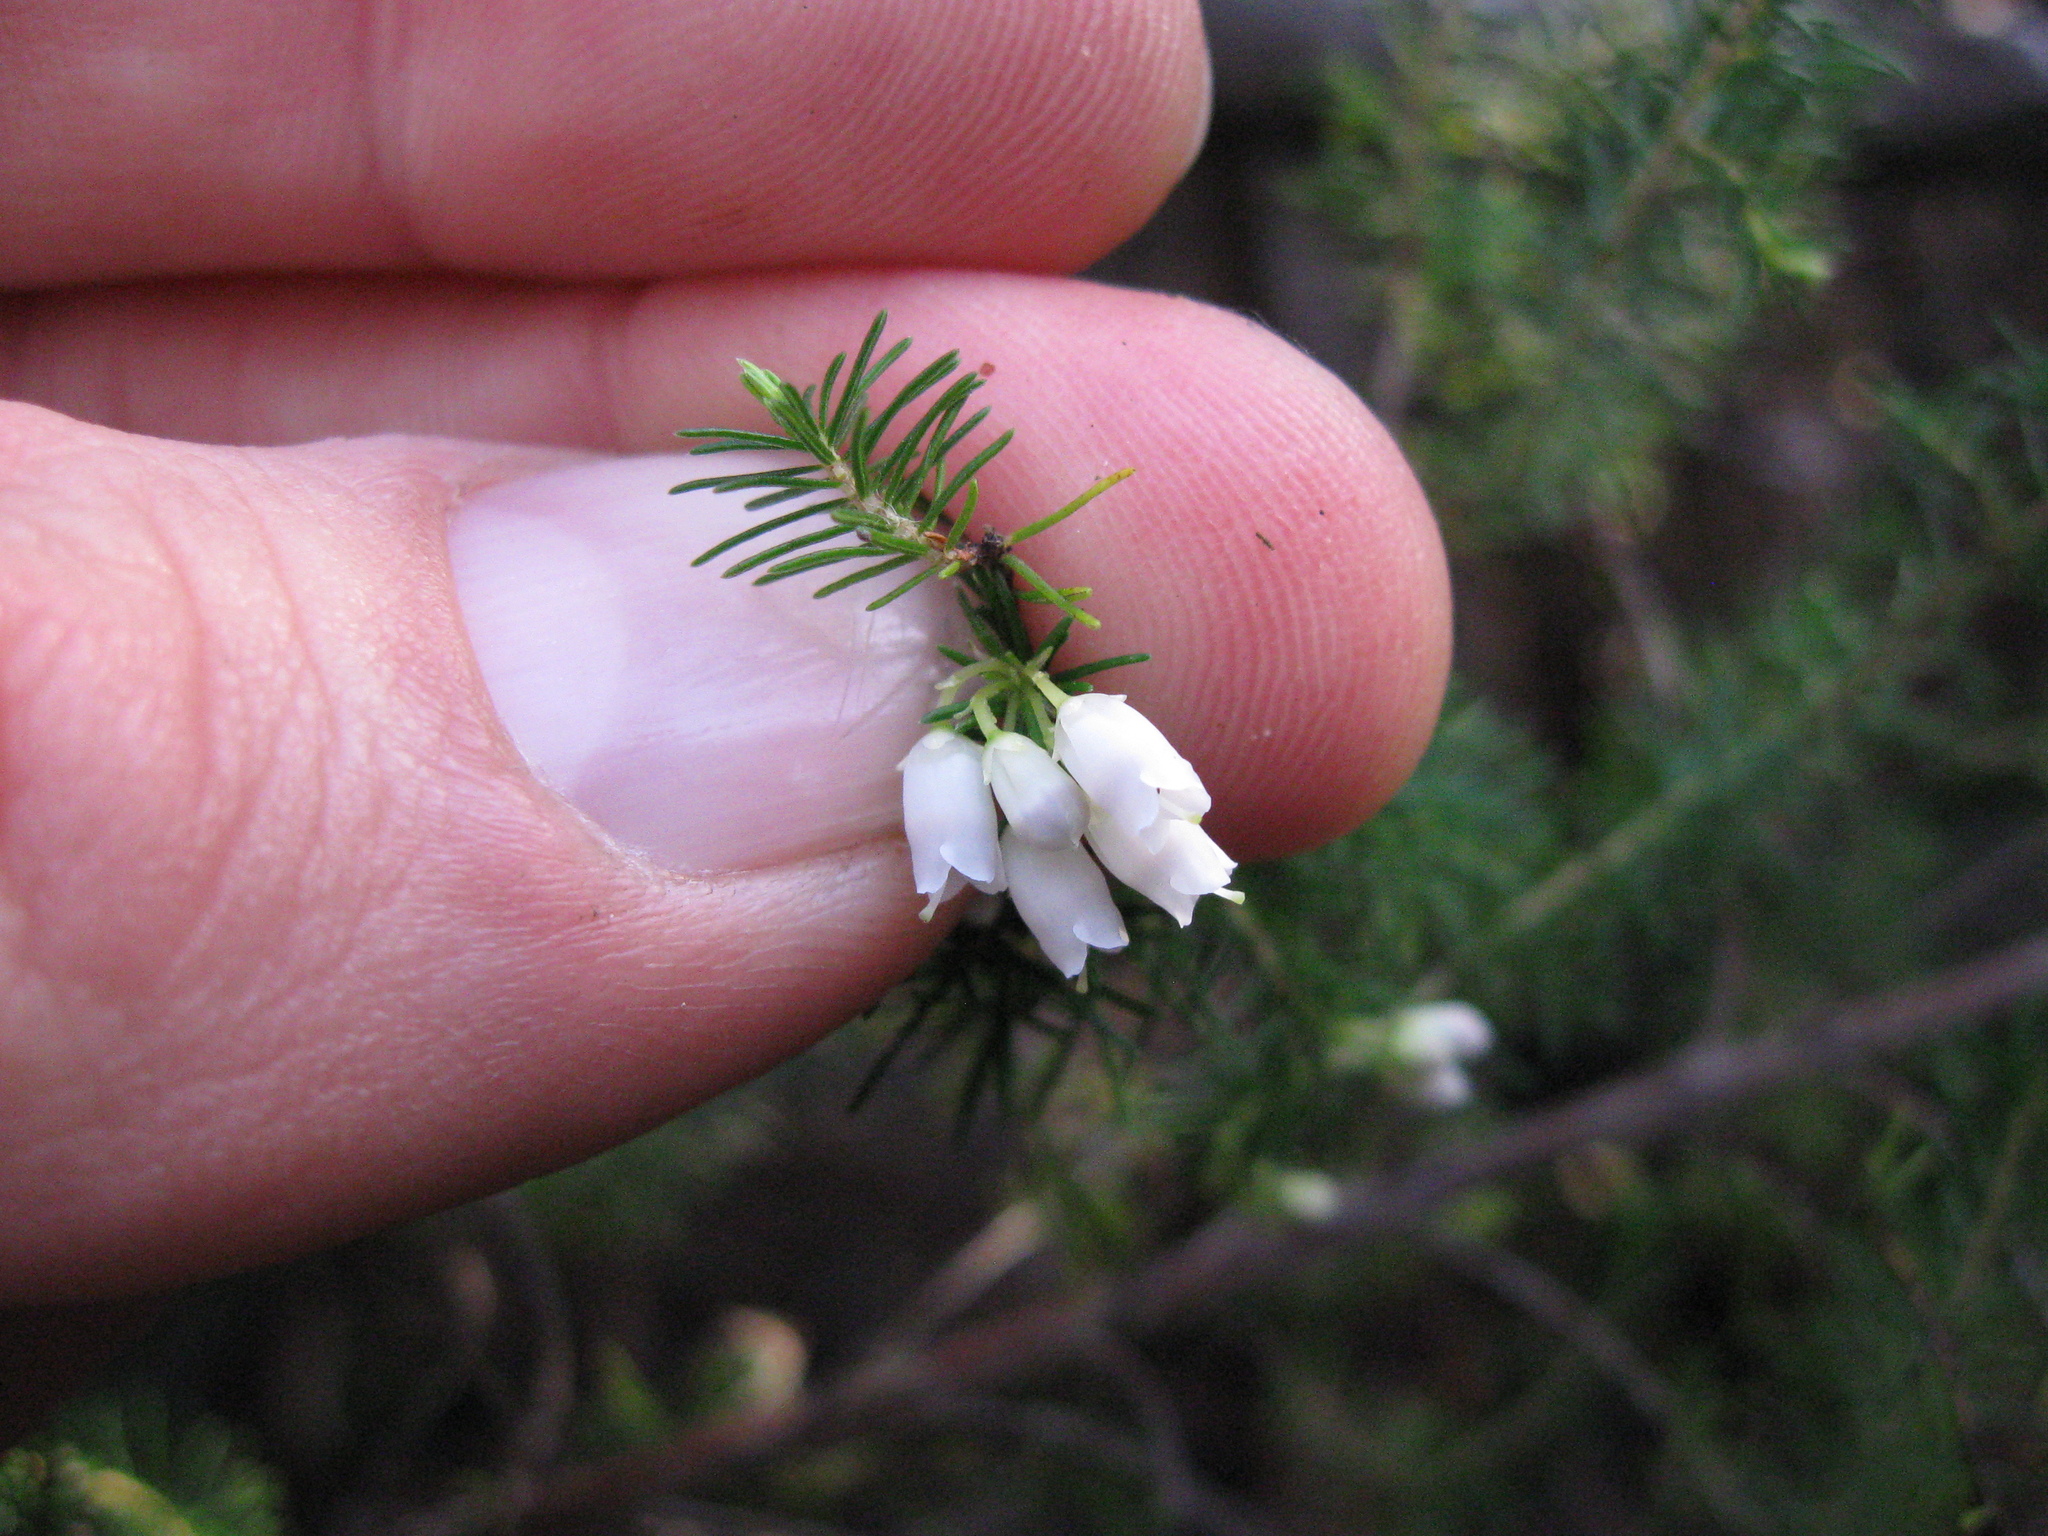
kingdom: Plantae
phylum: Tracheophyta
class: Magnoliopsida
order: Ericales
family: Ericaceae
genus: Erica
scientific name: Erica lusitanica
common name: Spanish heath
